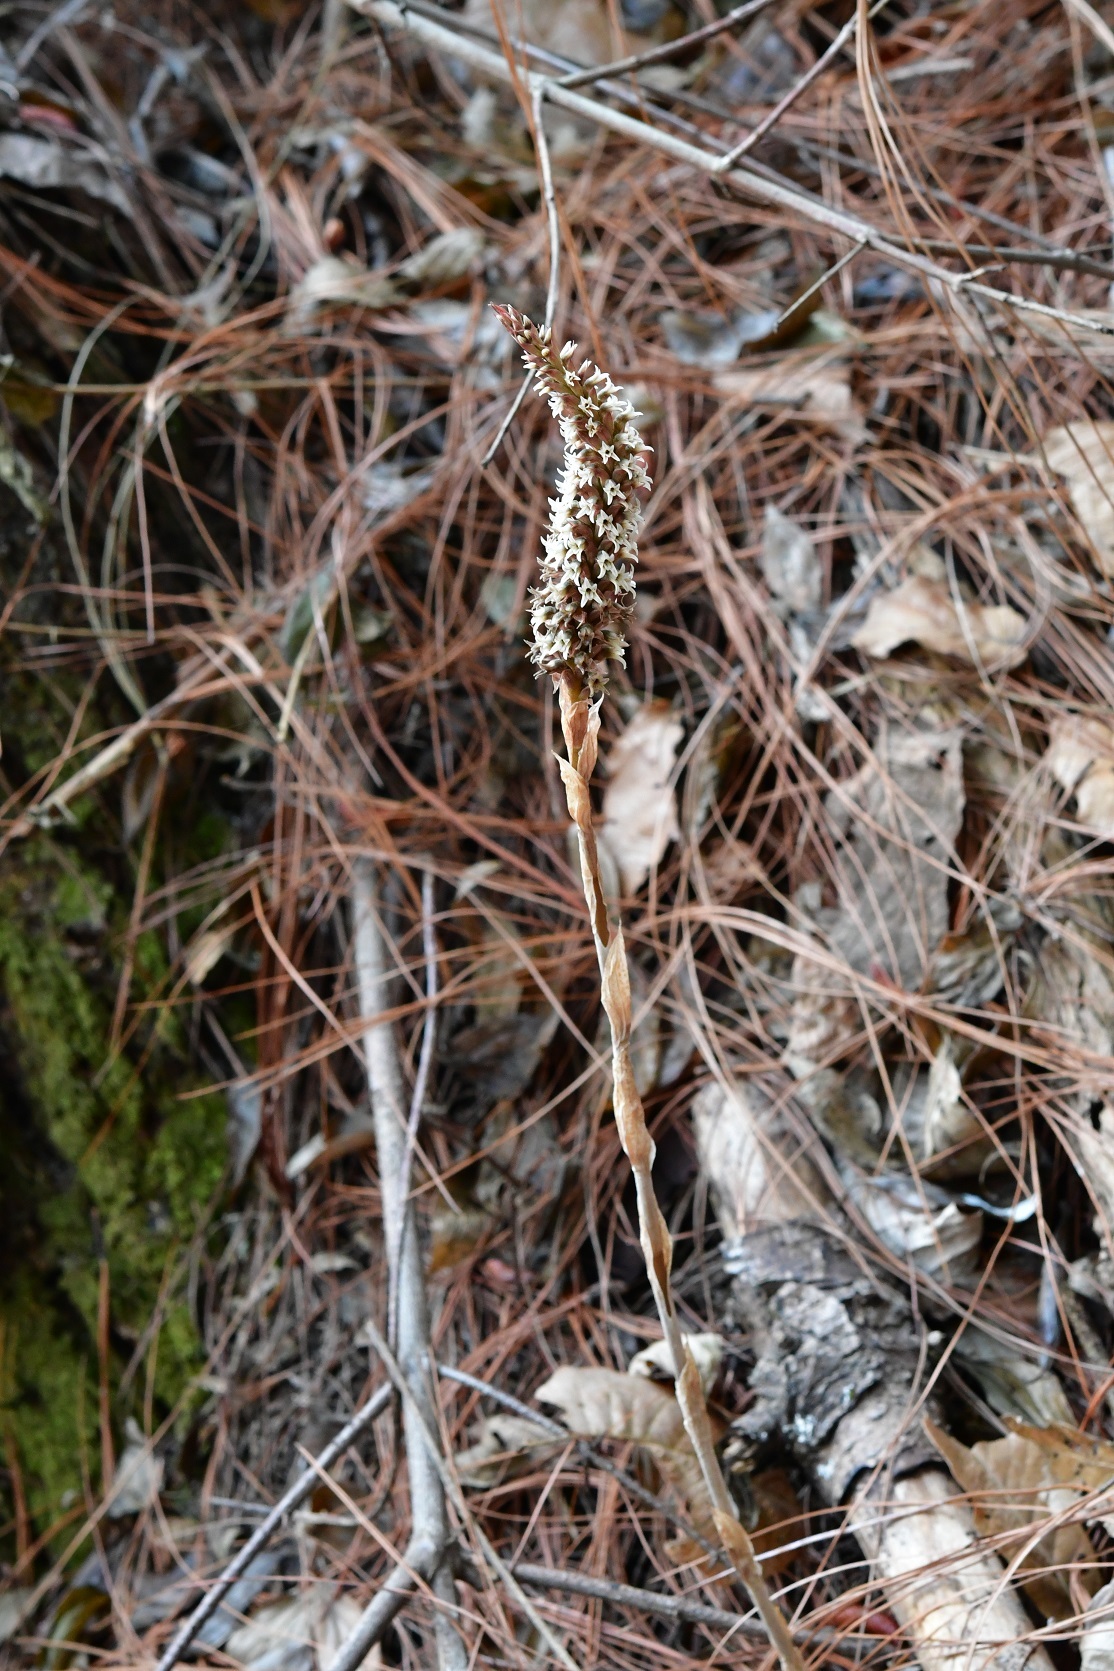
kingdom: Plantae
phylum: Tracheophyta
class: Liliopsida
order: Asparagales
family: Orchidaceae
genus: Aulosepalum
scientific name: Aulosepalum pyramidale
